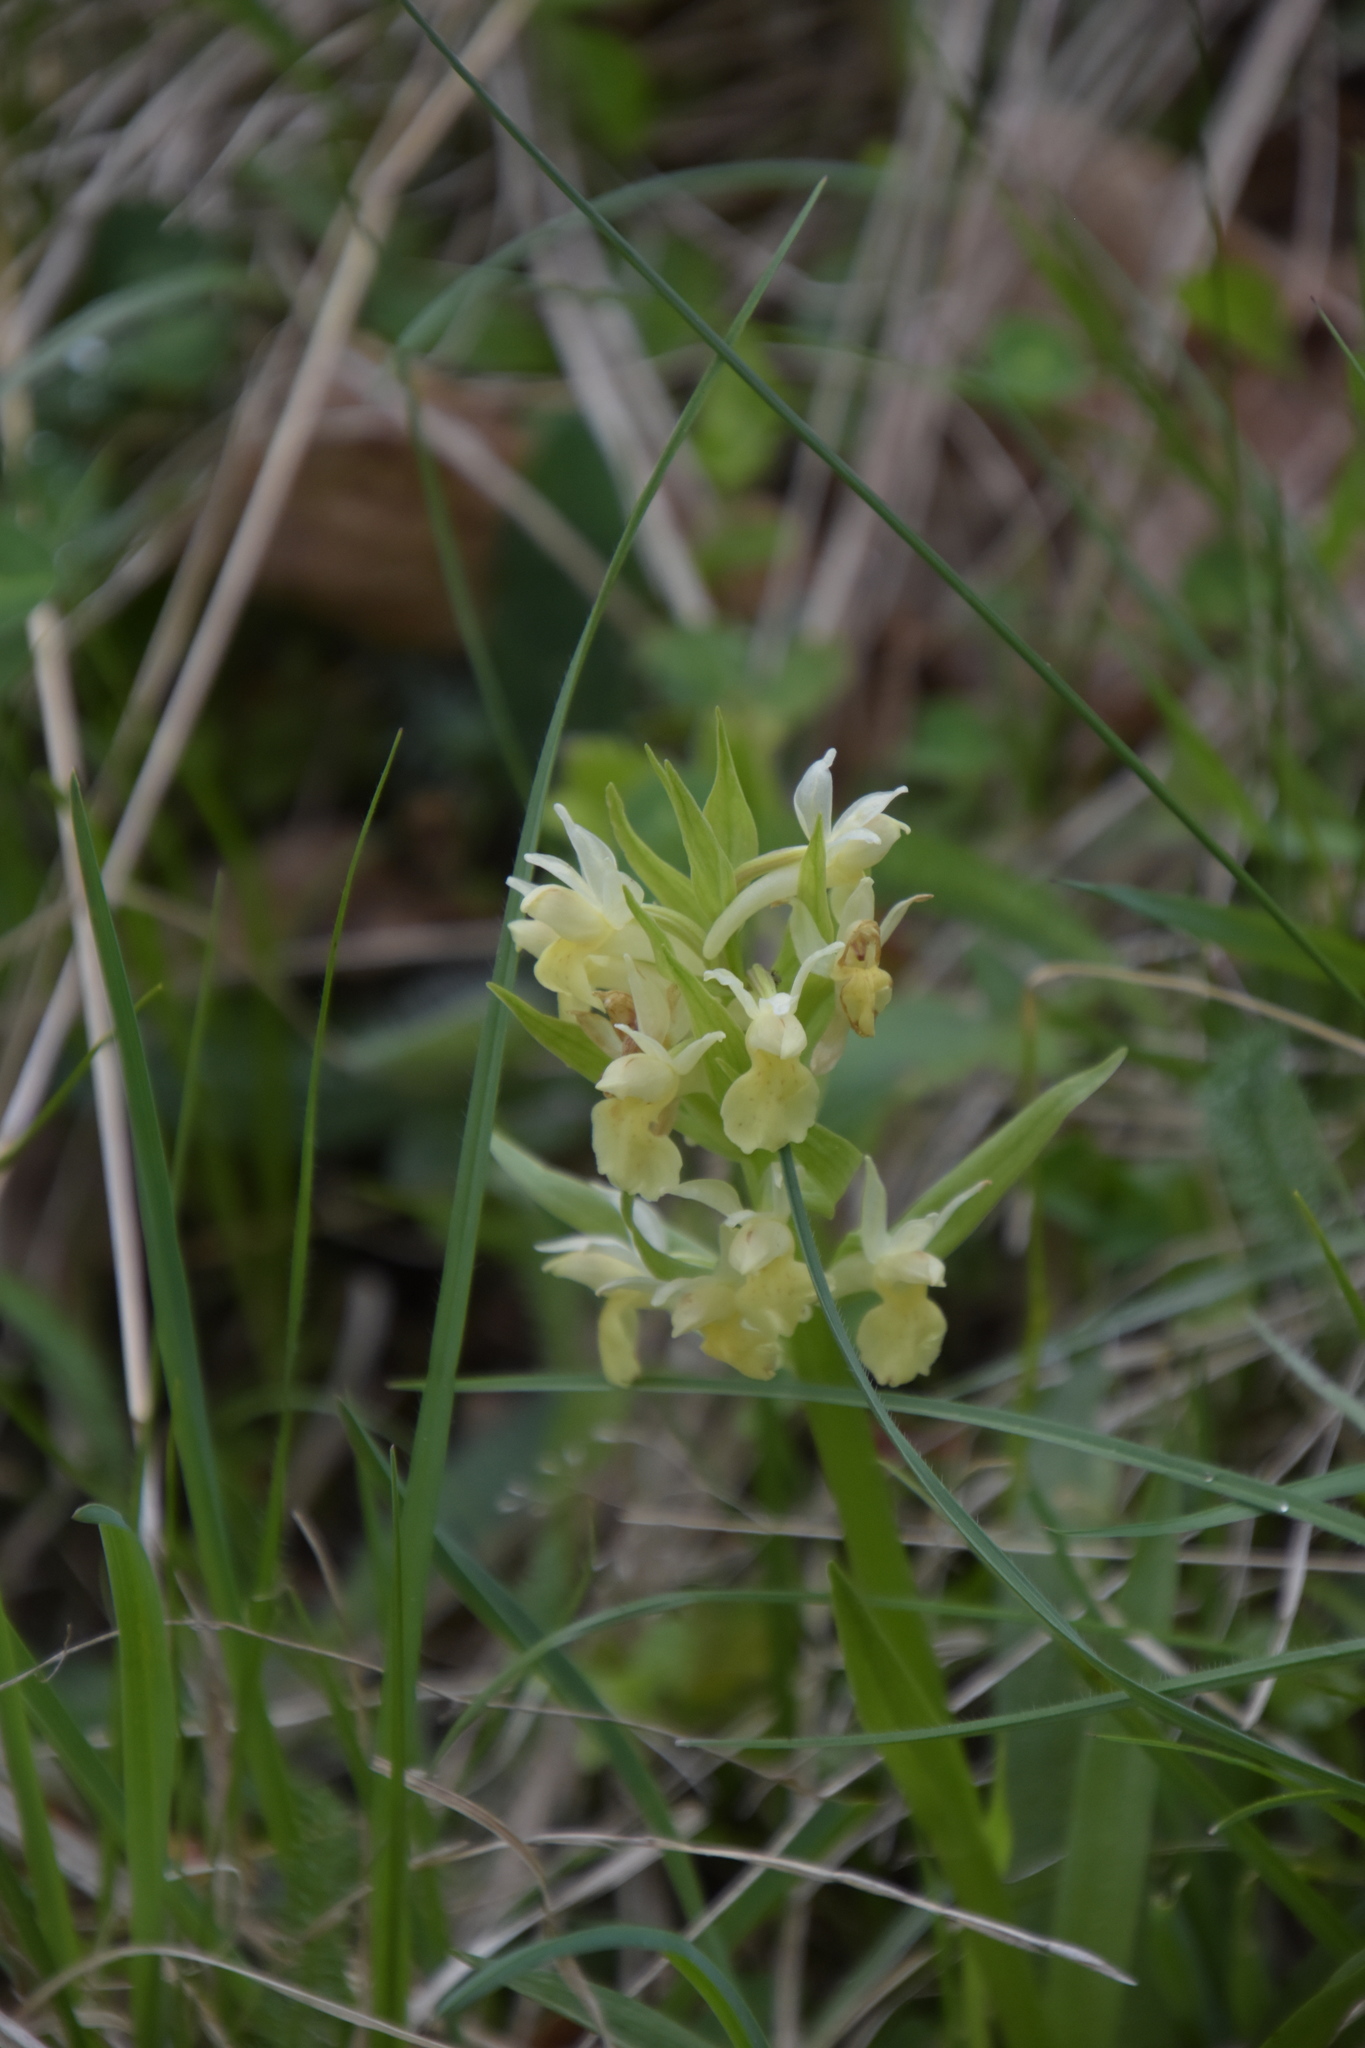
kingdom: Plantae
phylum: Tracheophyta
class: Liliopsida
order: Asparagales
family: Orchidaceae
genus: Dactylorhiza
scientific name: Dactylorhiza sambucina
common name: Elder-flowered orchid
